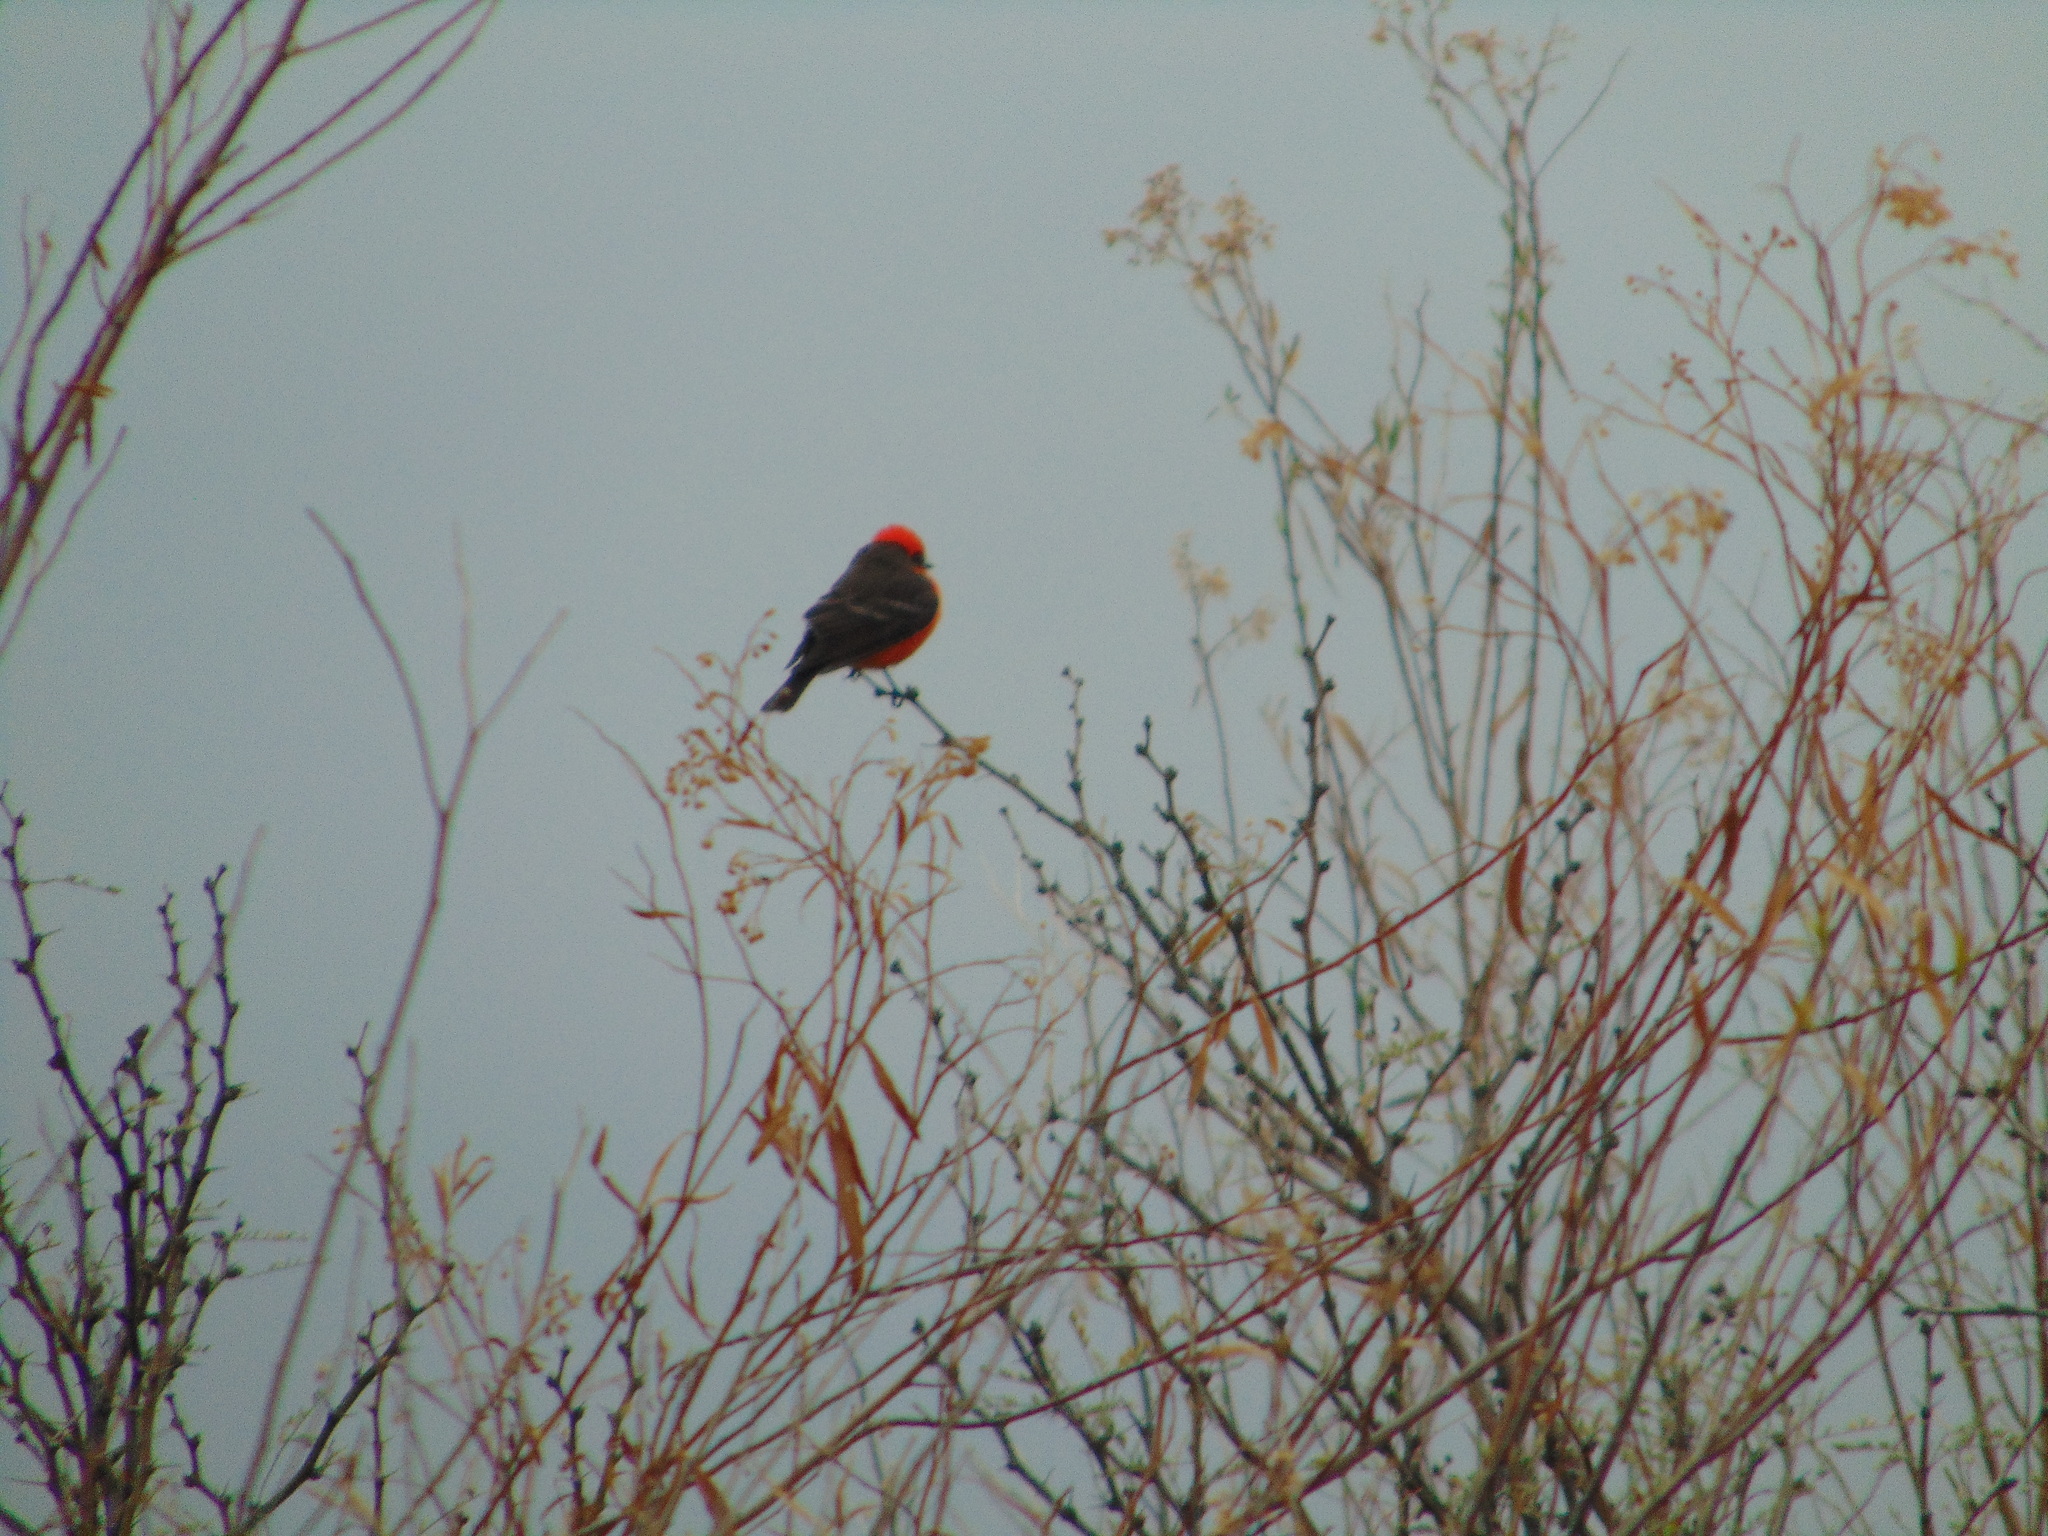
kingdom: Animalia
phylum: Chordata
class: Aves
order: Passeriformes
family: Tyrannidae
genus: Pyrocephalus
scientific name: Pyrocephalus rubinus
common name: Vermilion flycatcher
